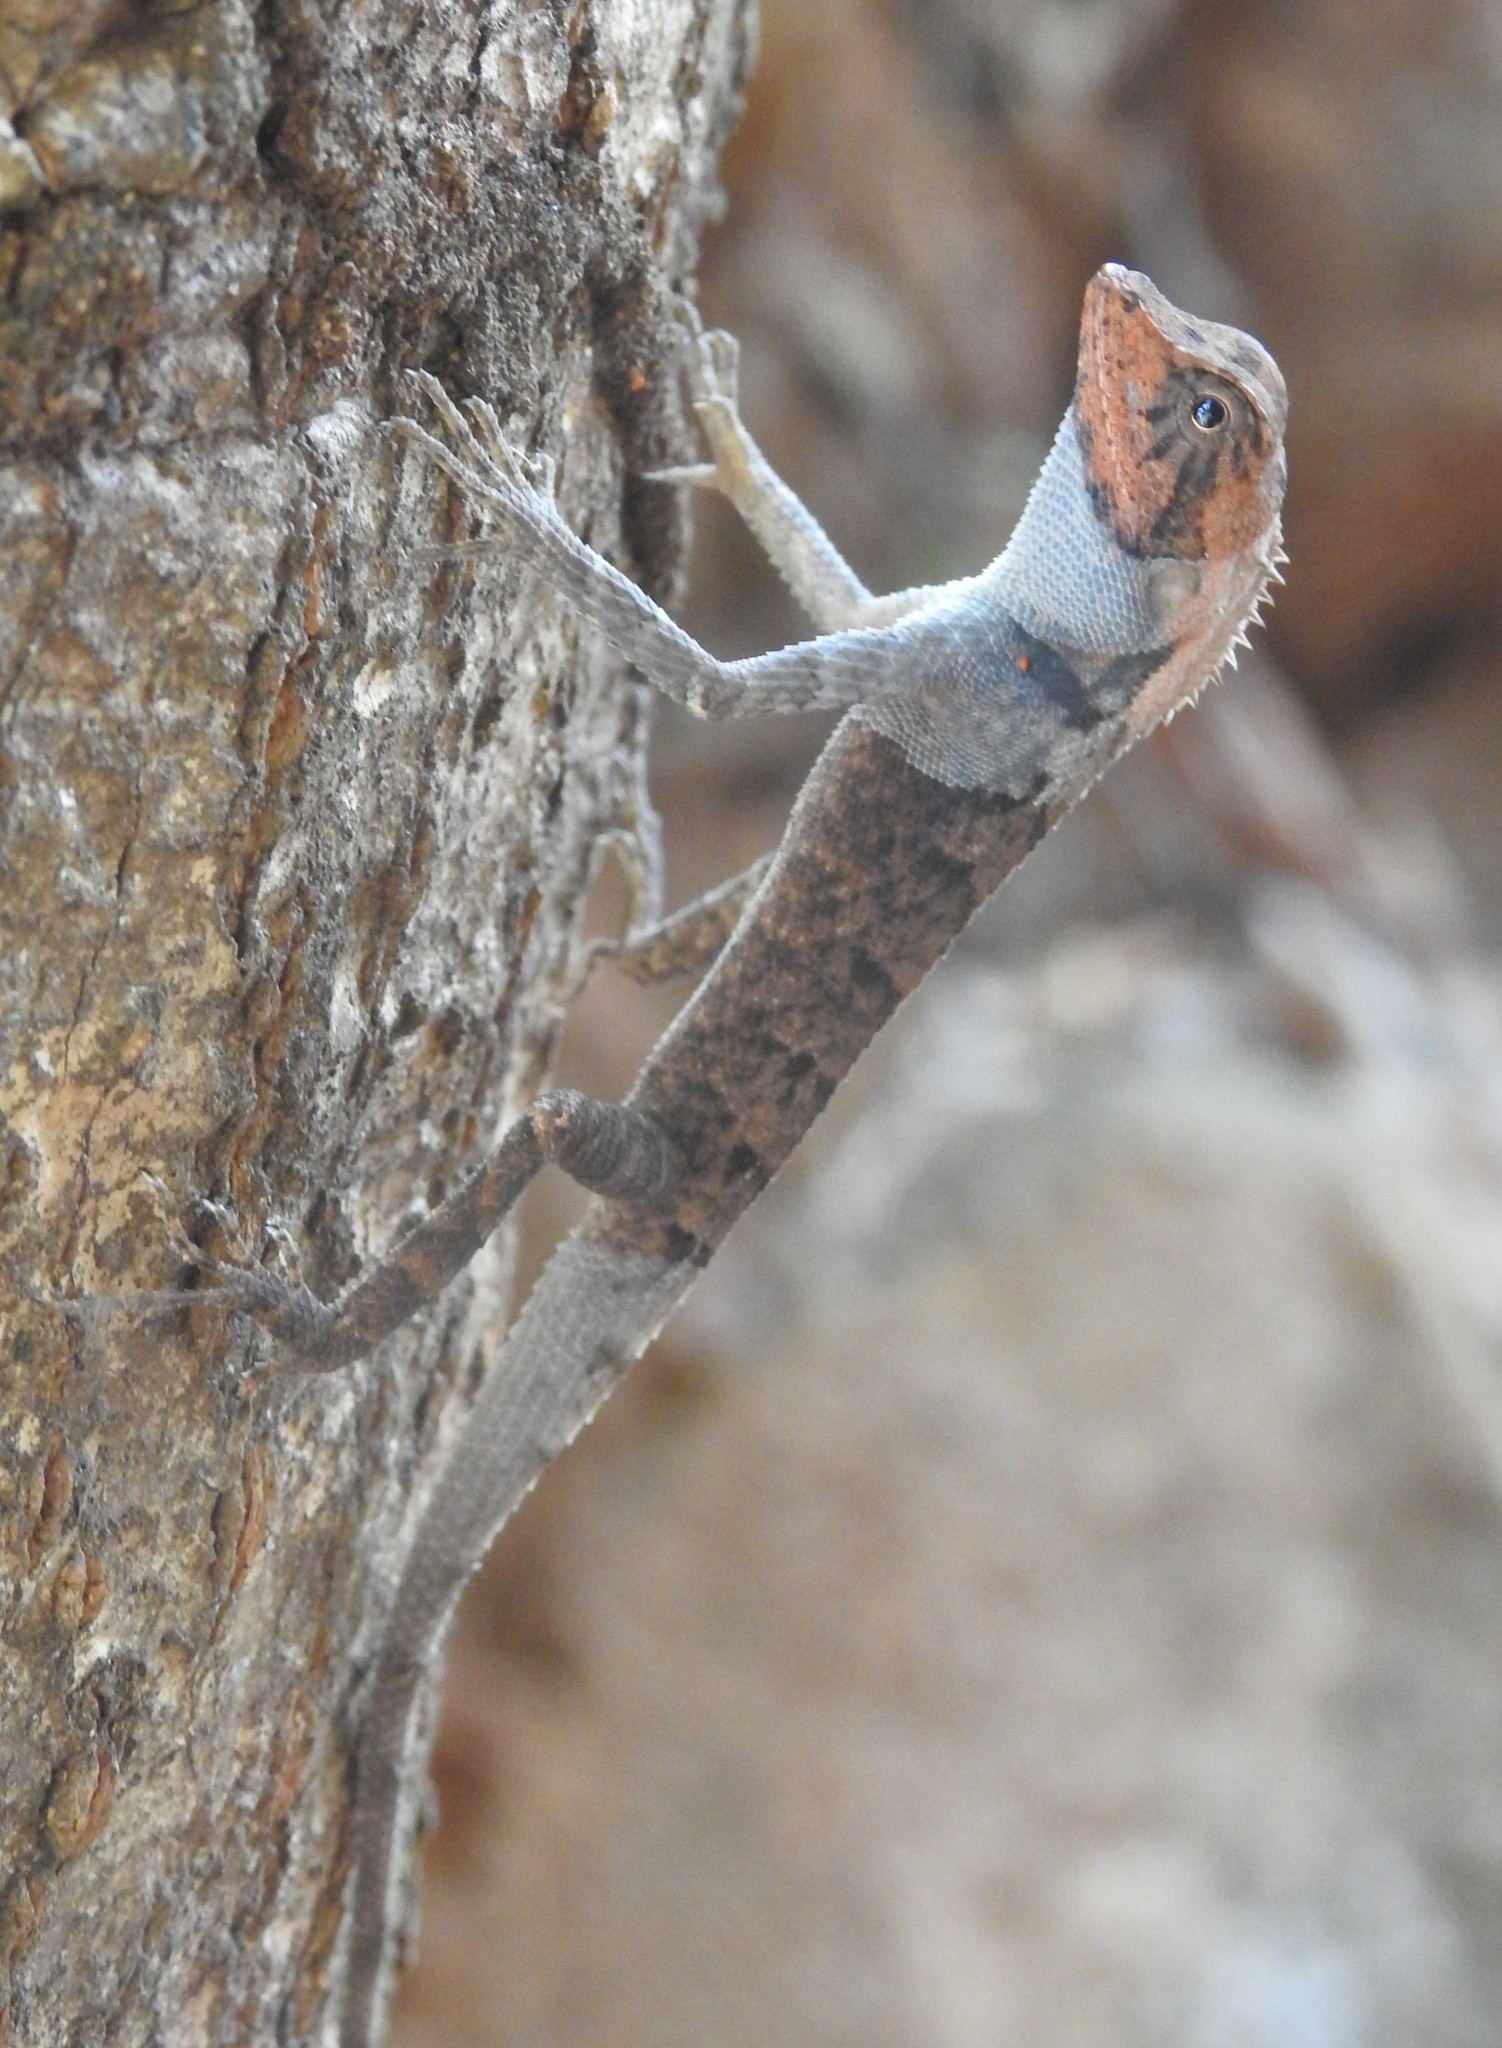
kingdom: Animalia
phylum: Chordata
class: Squamata
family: Agamidae
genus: Monilesaurus
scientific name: Monilesaurus rouxii
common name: Roux's forest lizard
